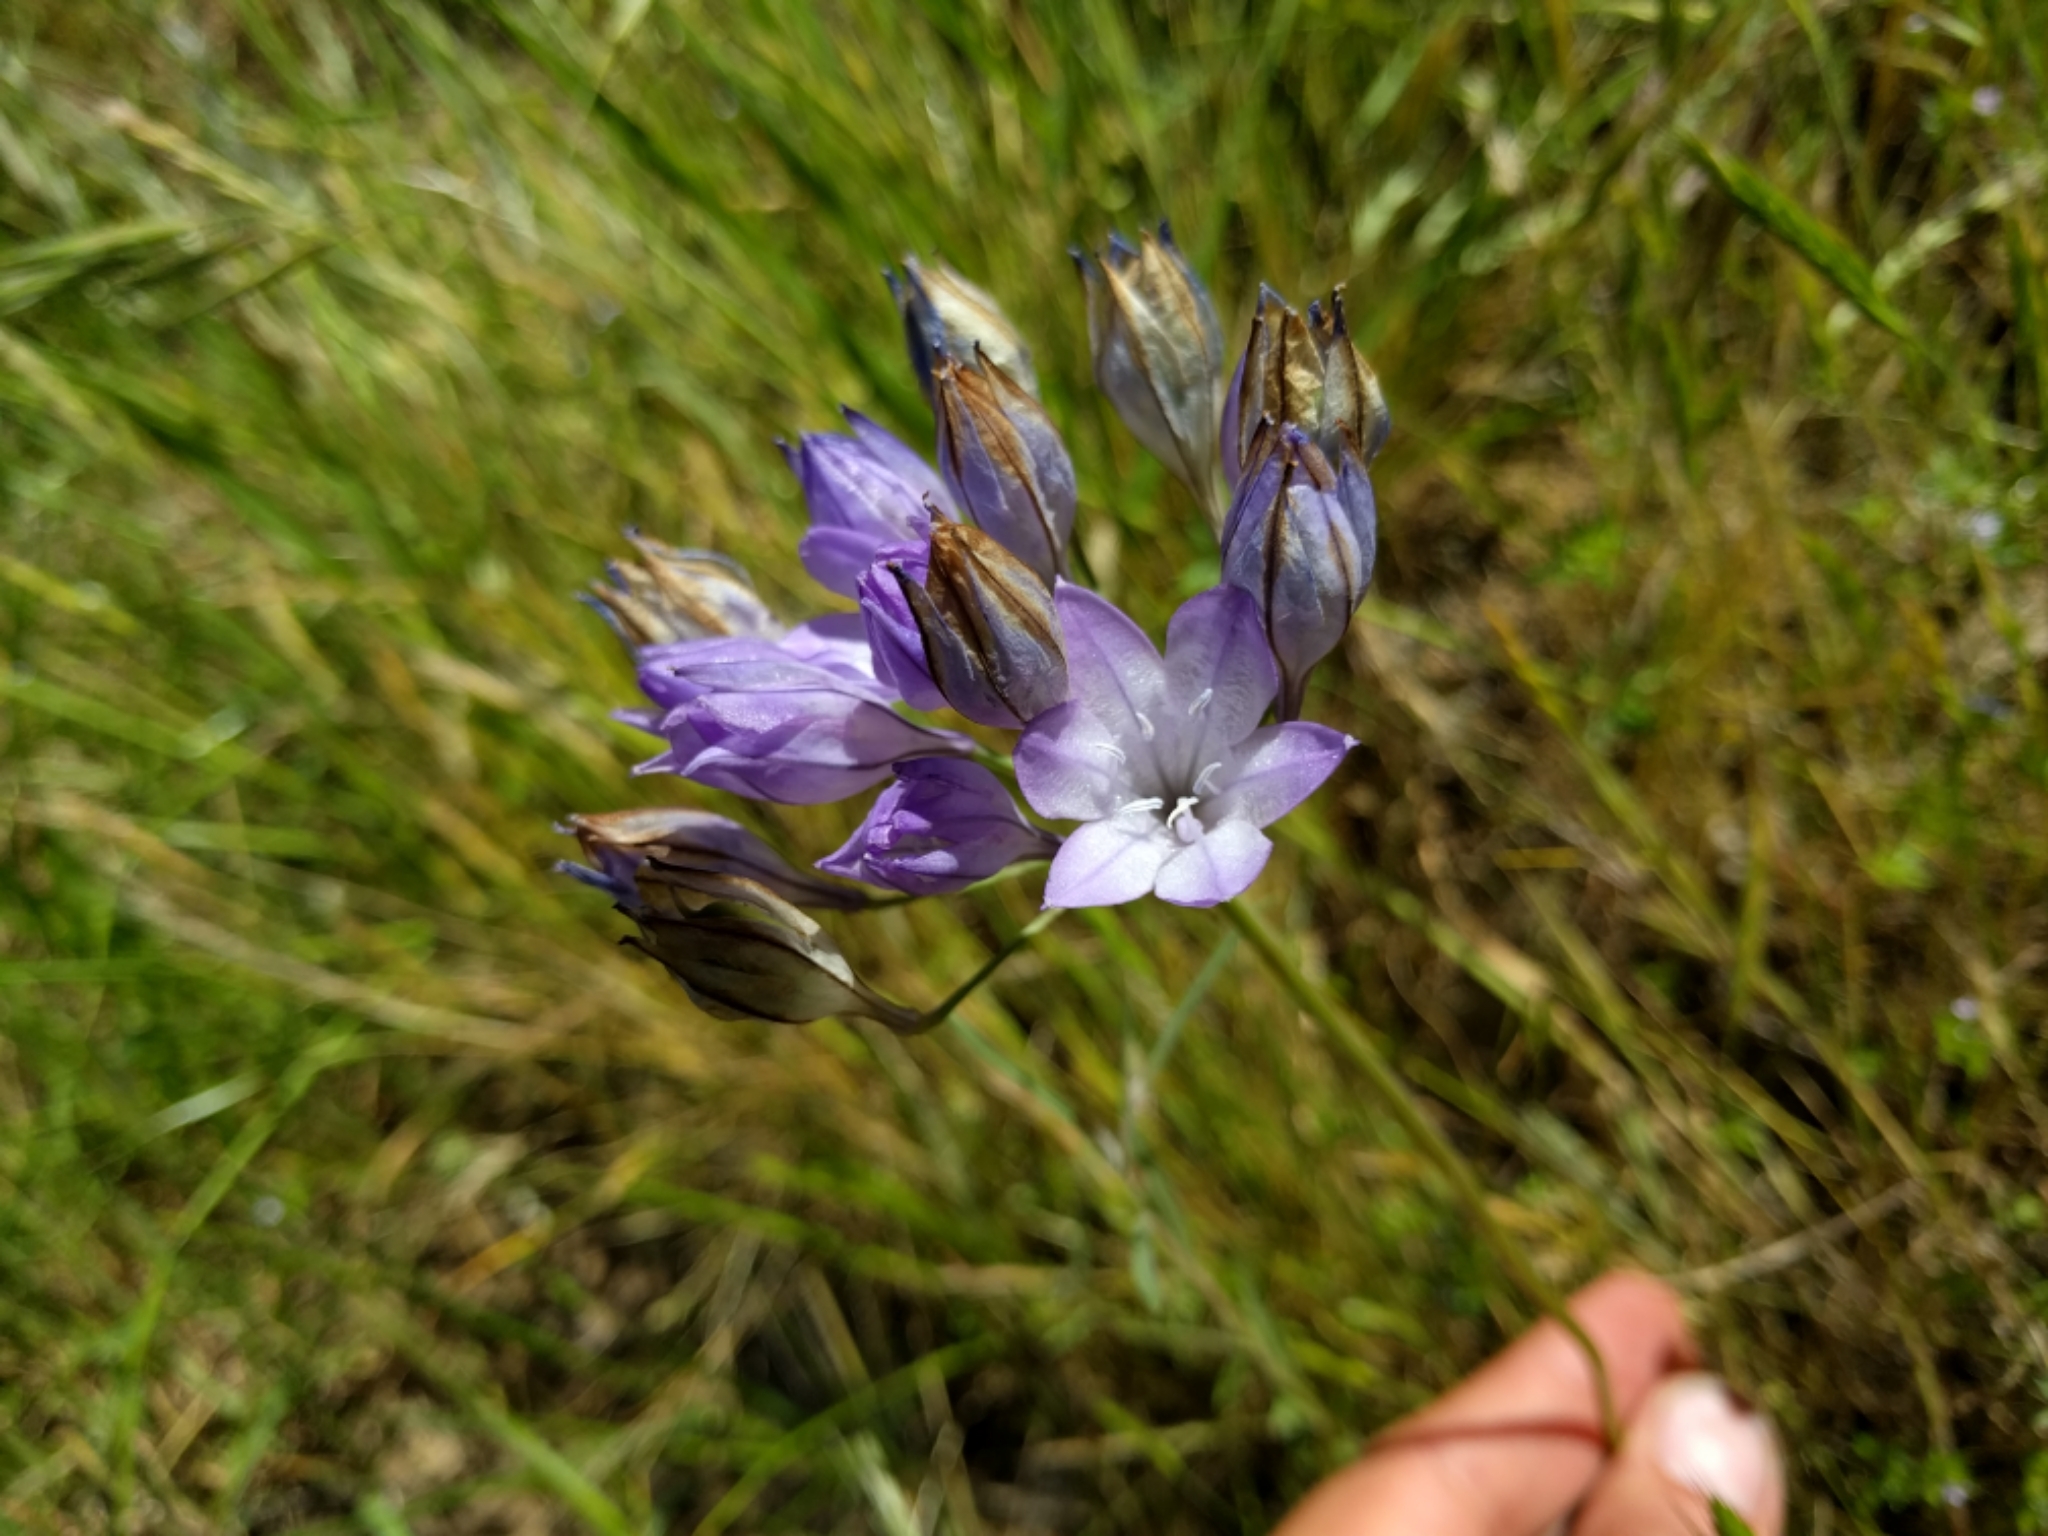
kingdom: Plantae
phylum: Tracheophyta
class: Liliopsida
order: Asparagales
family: Asparagaceae
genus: Triteleia
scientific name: Triteleia laxa
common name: Triplet-lily
